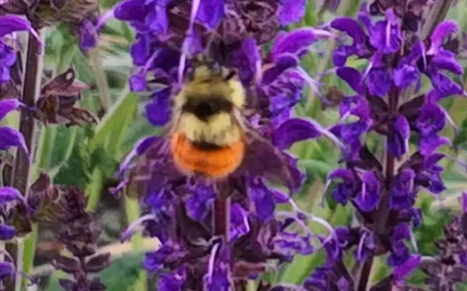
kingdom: Animalia
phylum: Arthropoda
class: Insecta
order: Hymenoptera
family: Apidae
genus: Bombus
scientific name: Bombus melanopygus
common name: Black tail bumble bee
